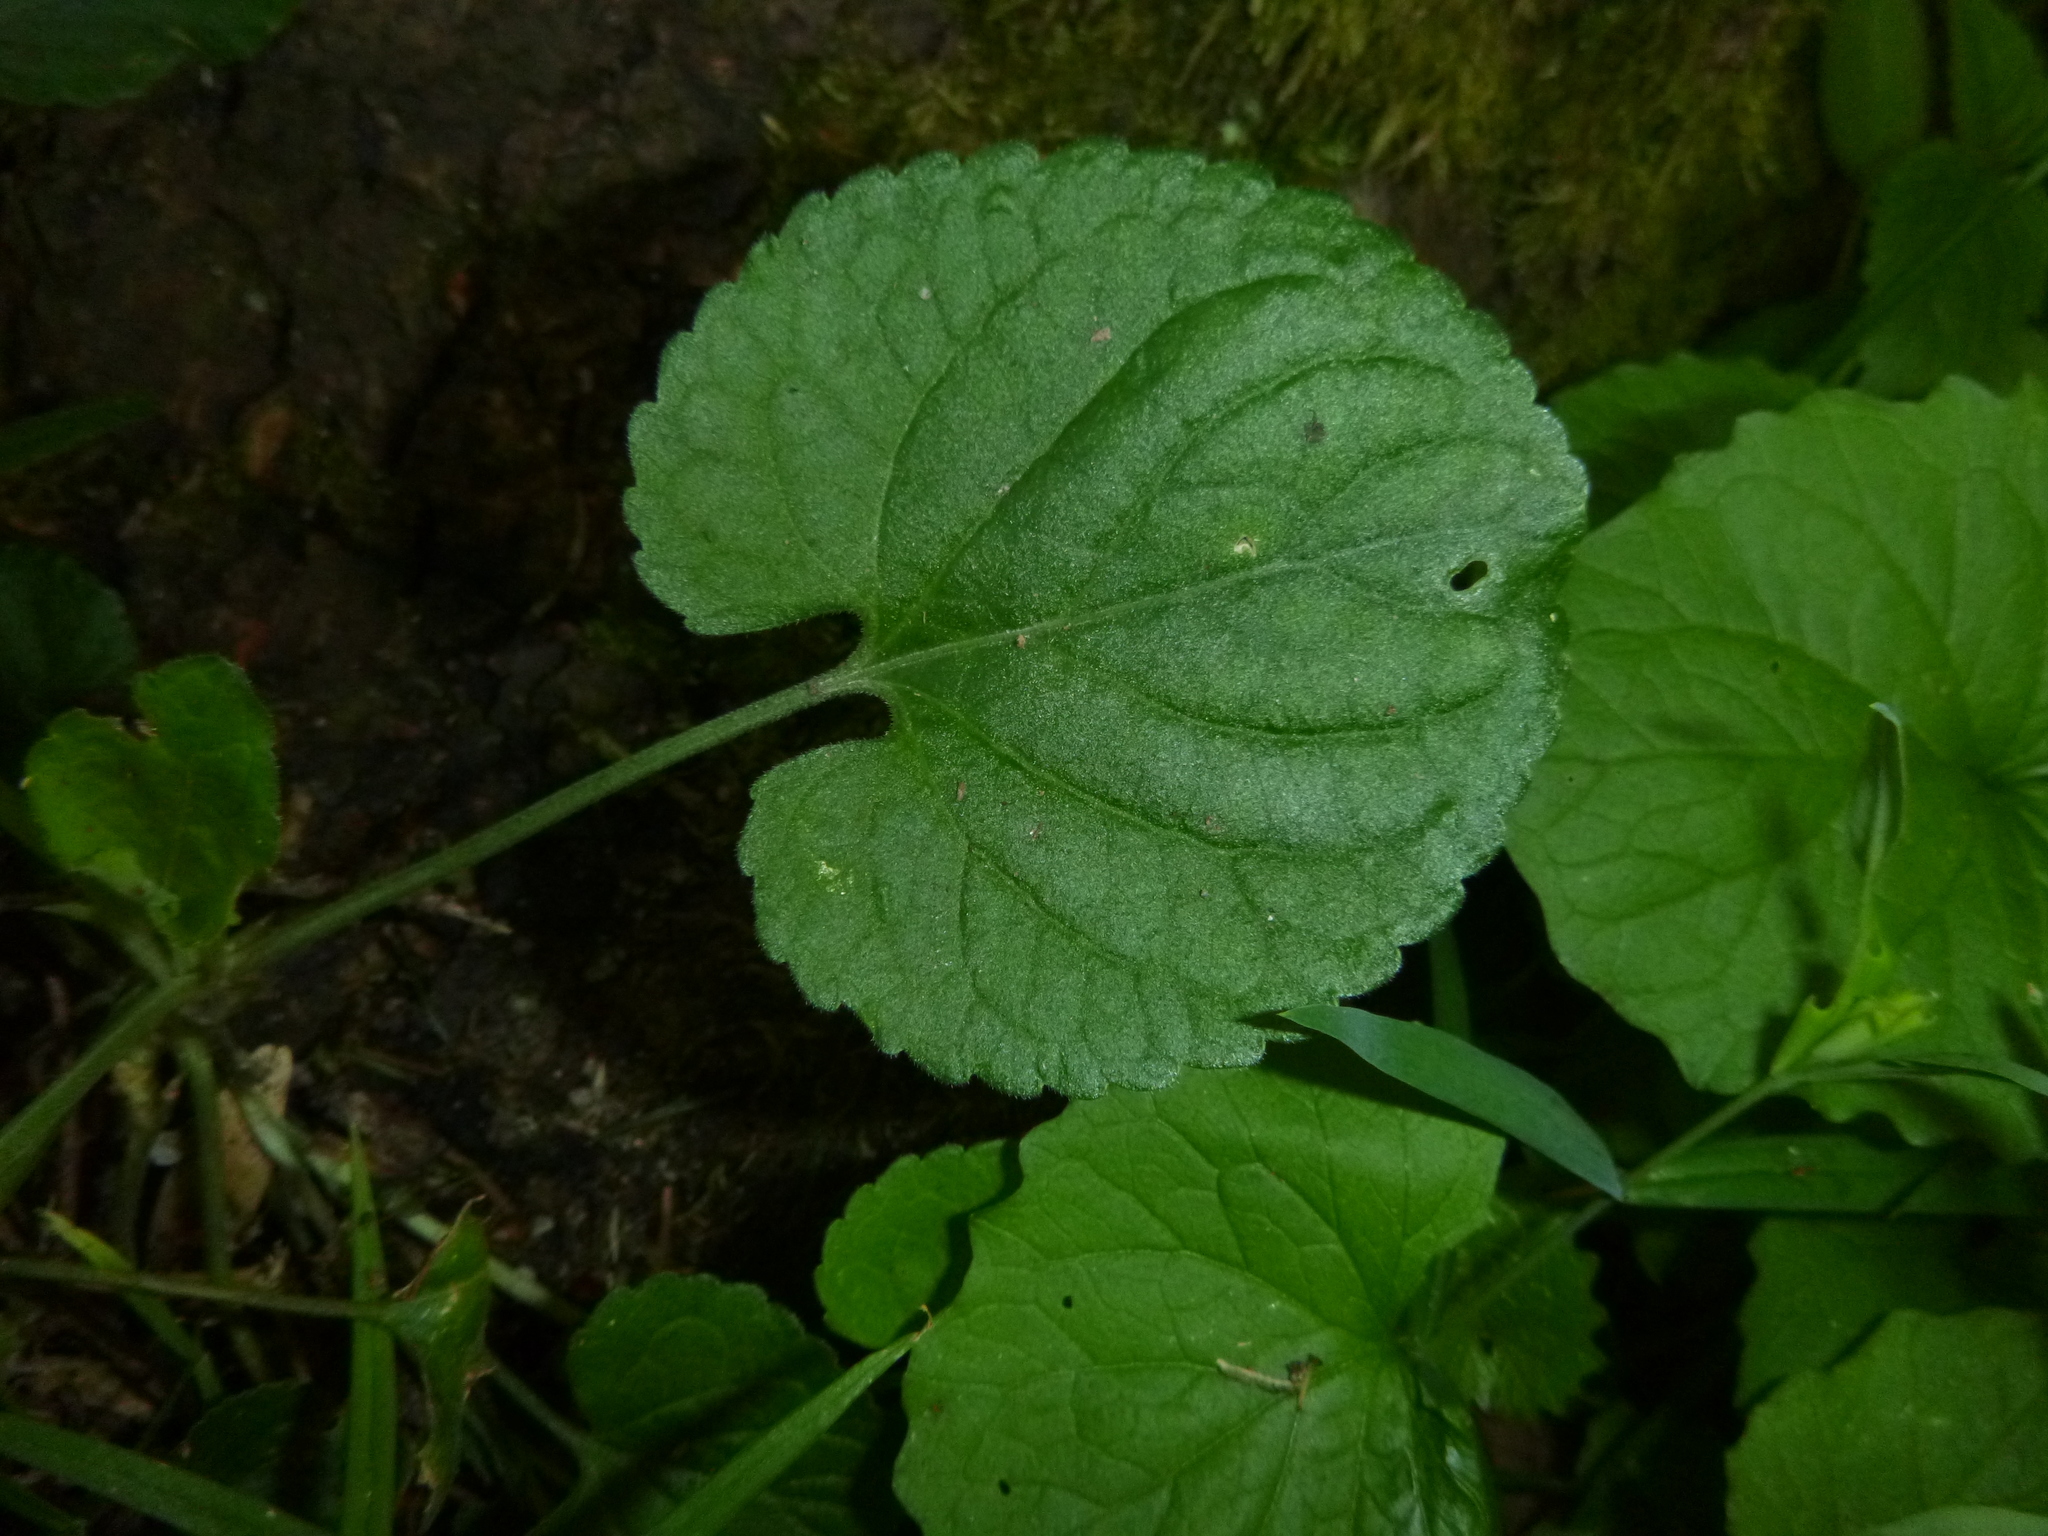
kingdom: Plantae
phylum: Tracheophyta
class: Magnoliopsida
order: Malpighiales
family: Violaceae
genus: Viola
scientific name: Viola reichenbachiana
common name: Early dog-violet
